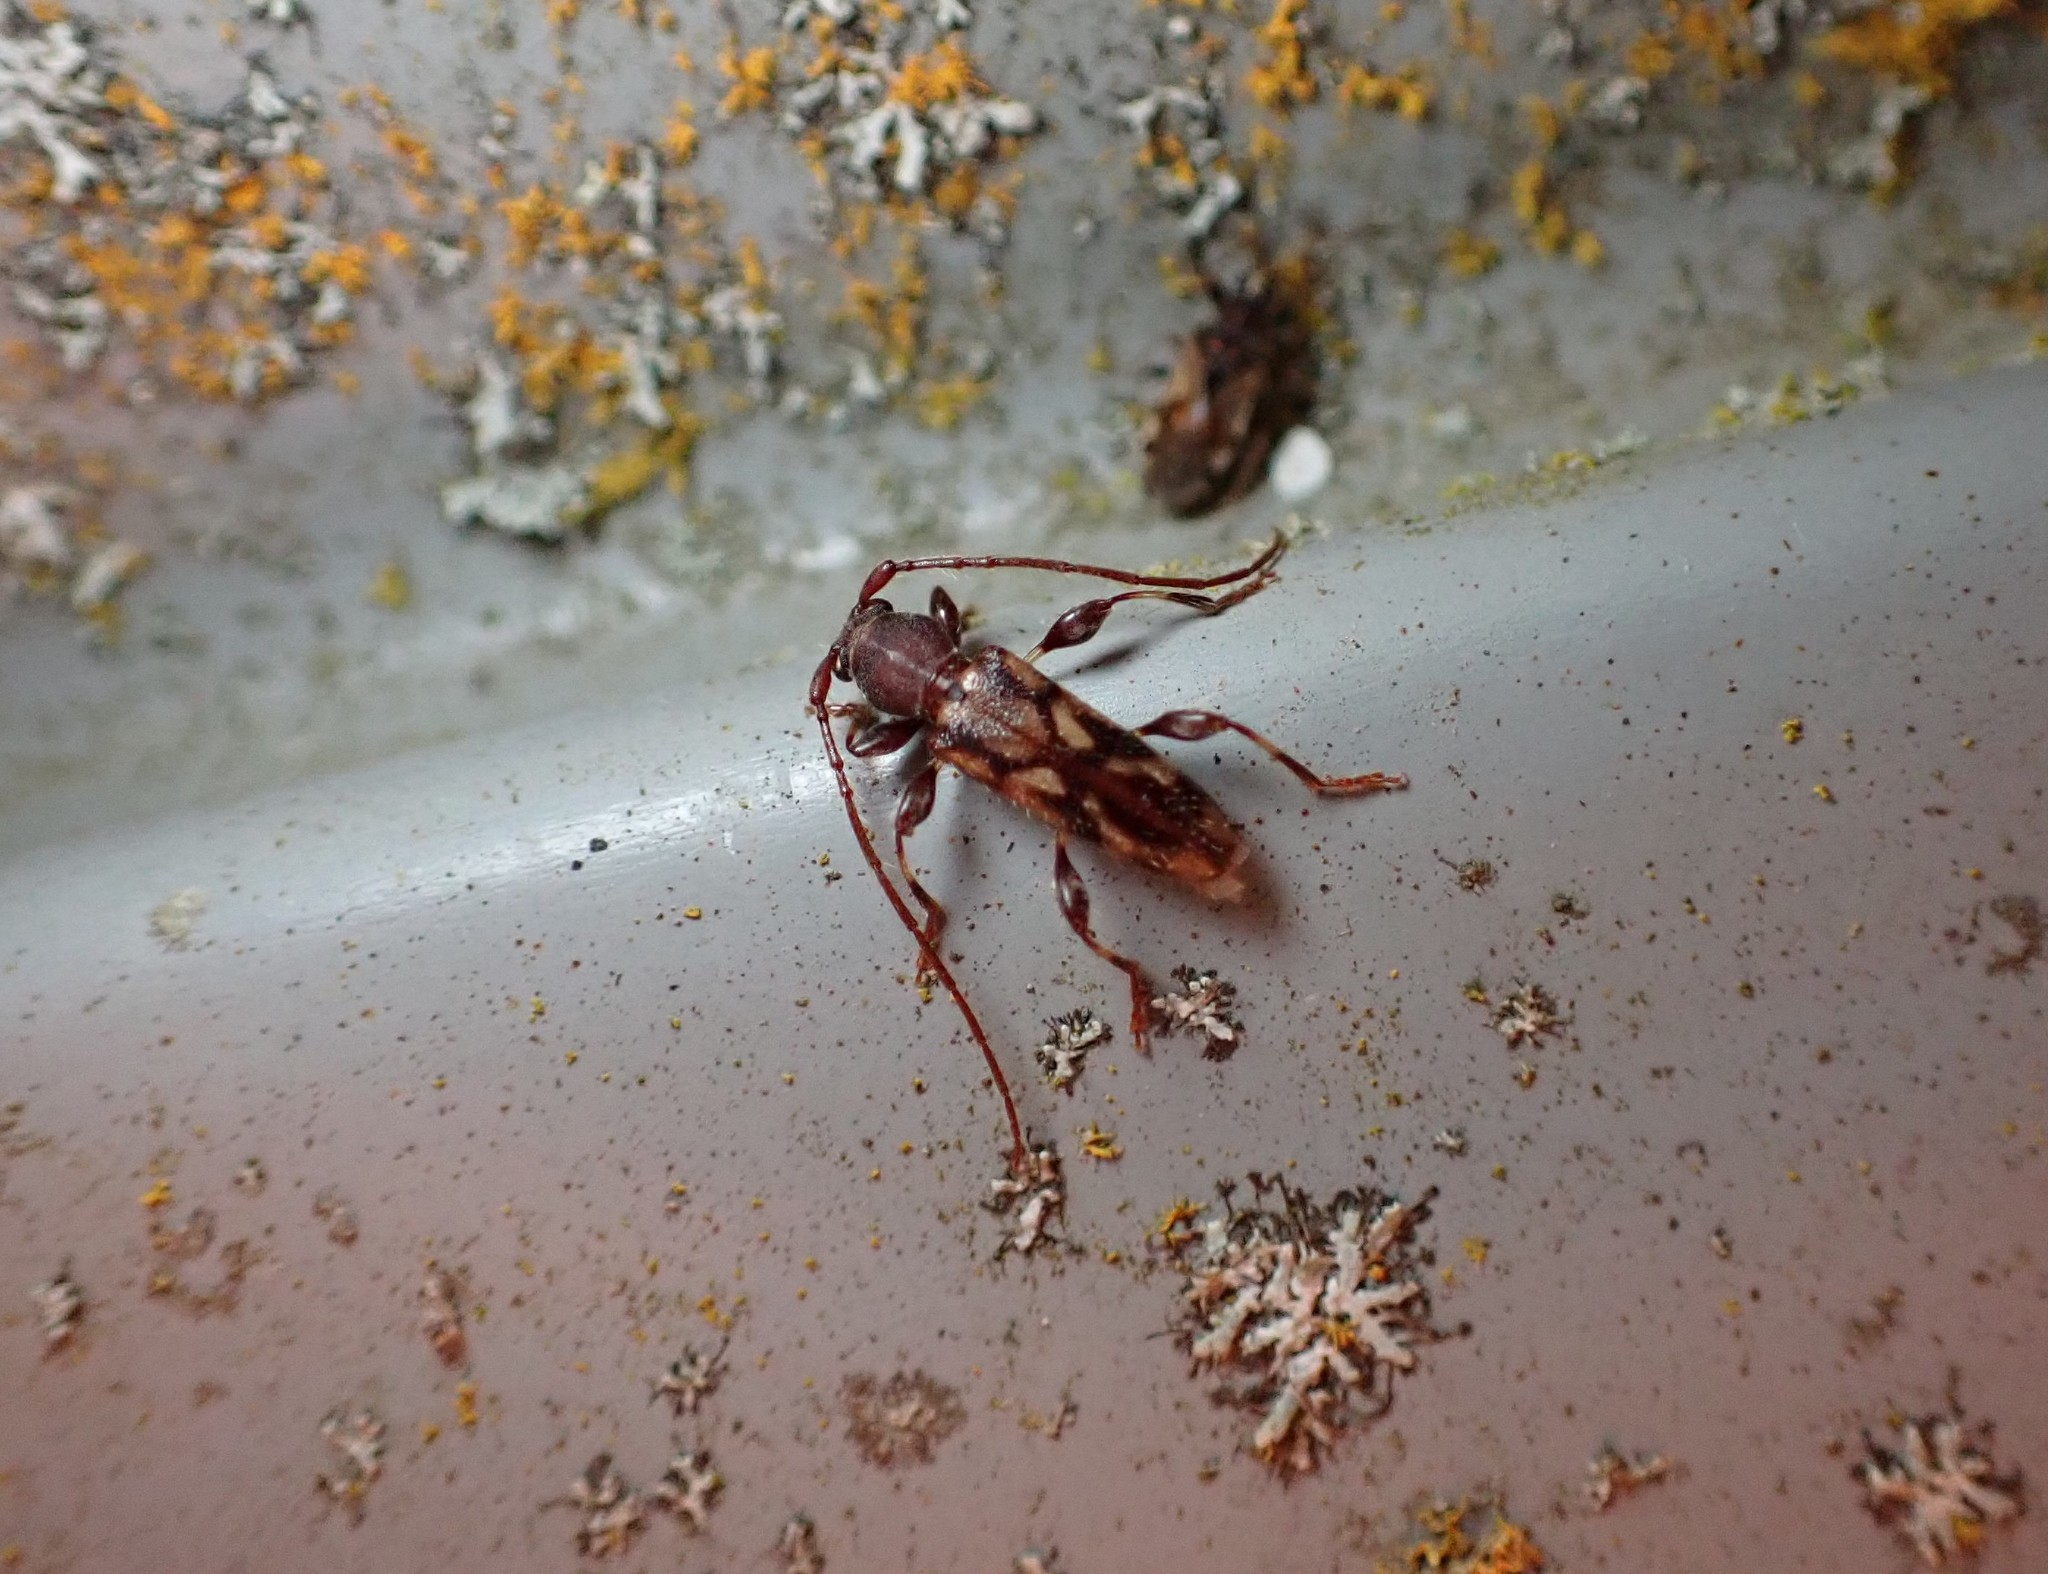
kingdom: Animalia
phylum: Arthropoda
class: Insecta
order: Coleoptera
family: Cerambycidae
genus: Bethelium
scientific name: Bethelium signiferum
